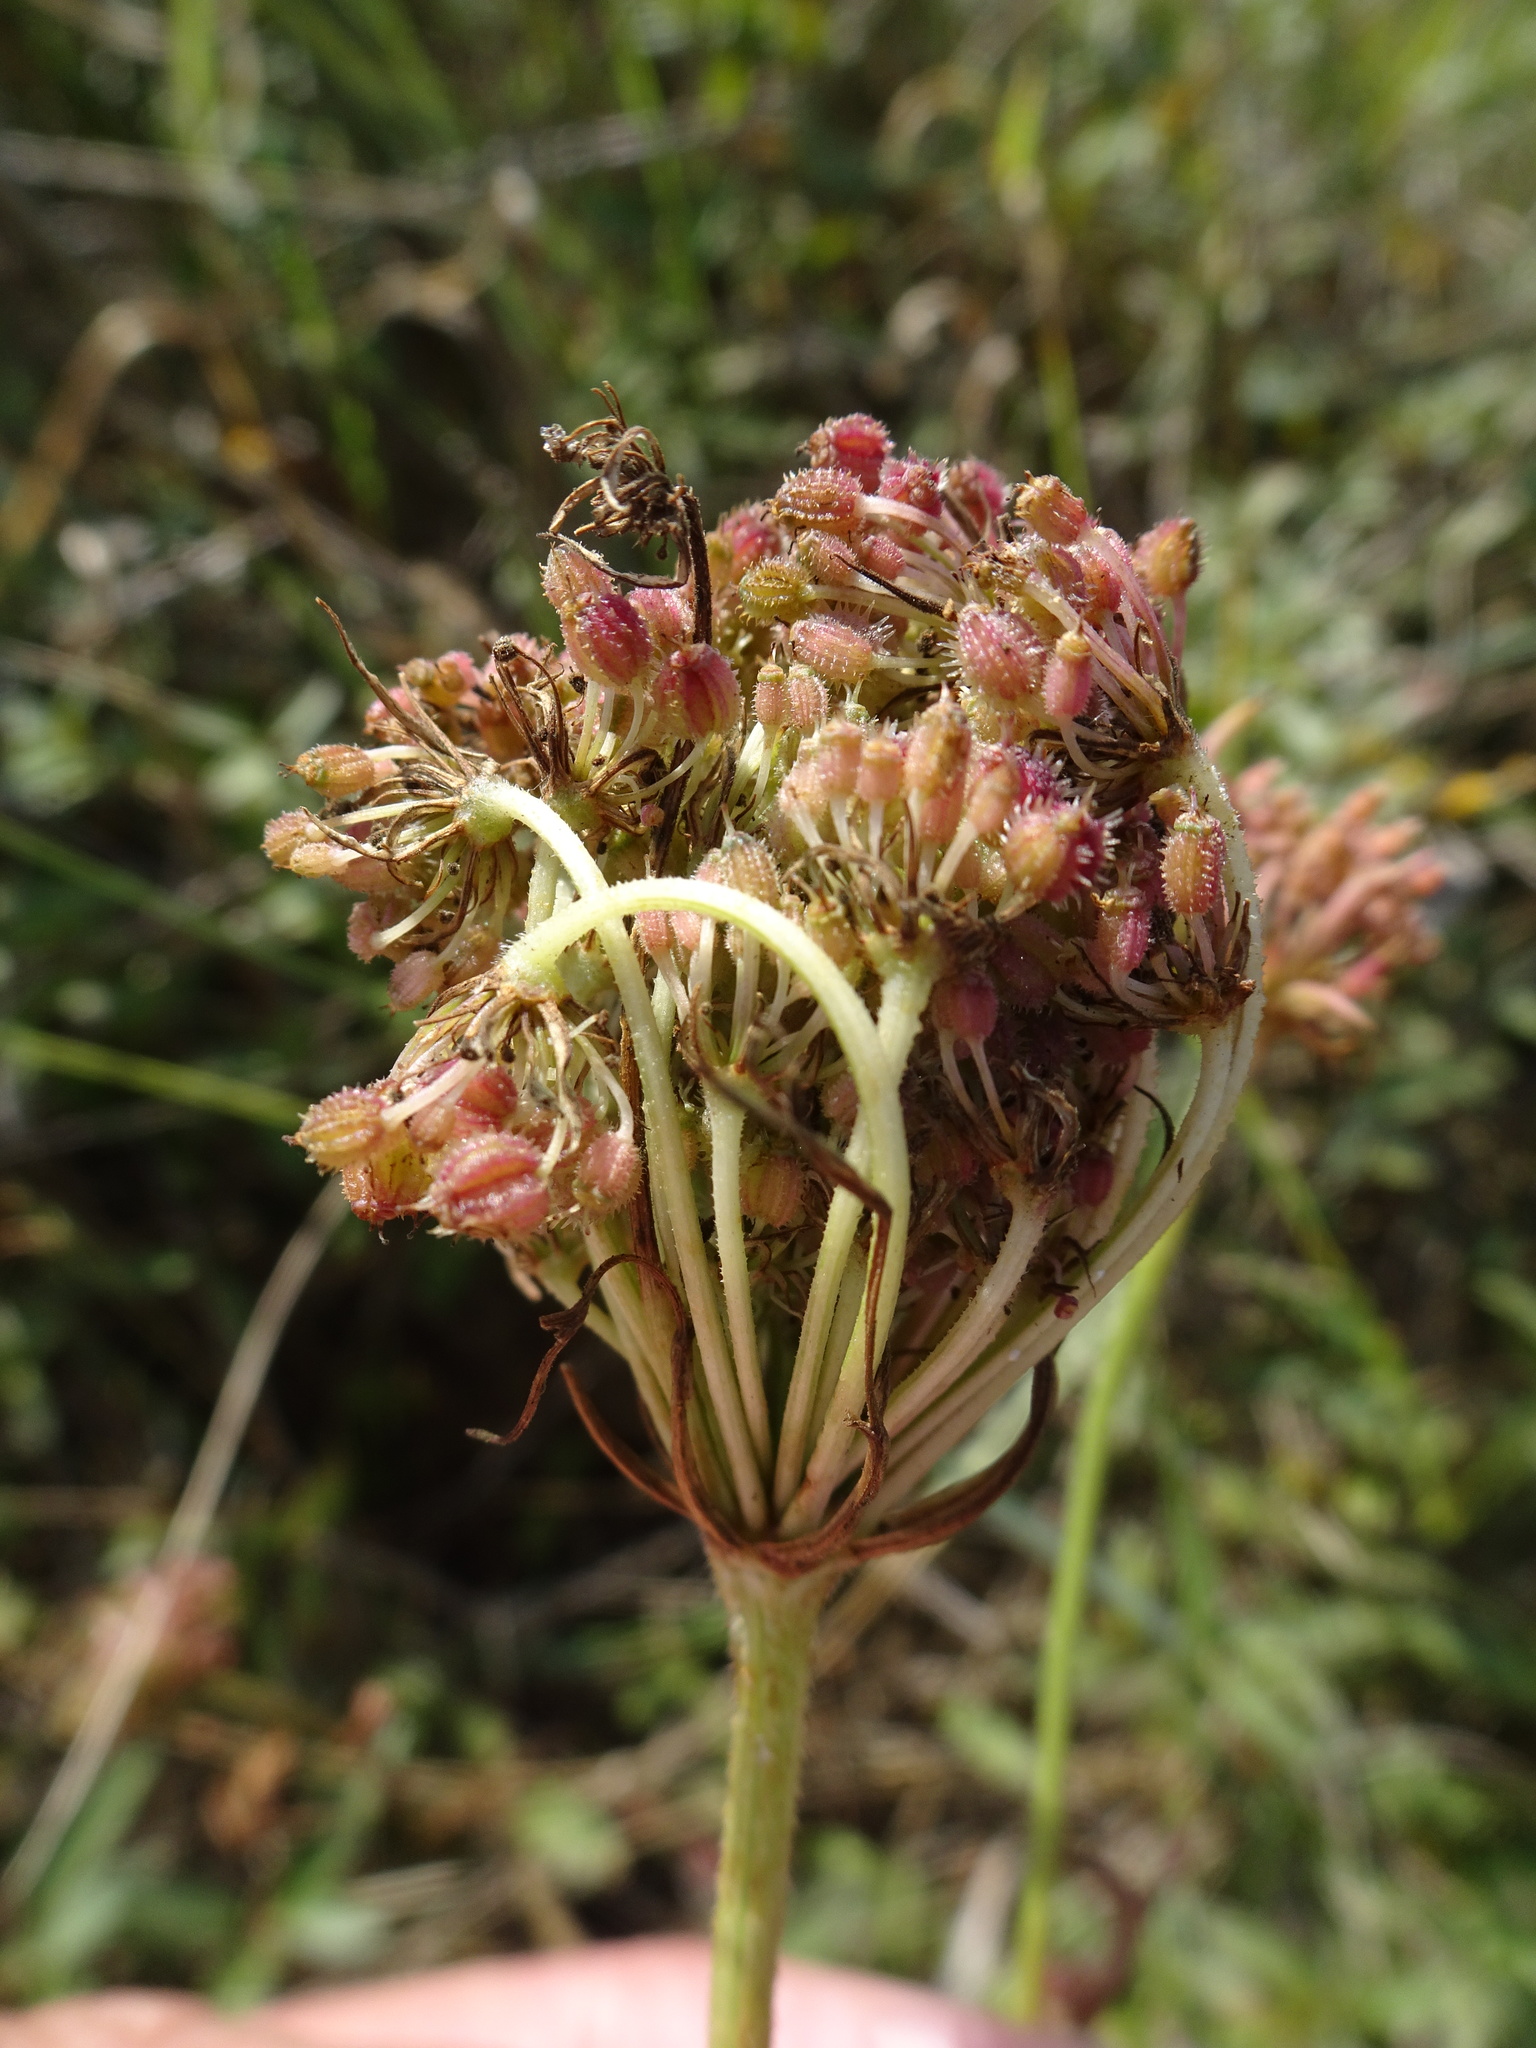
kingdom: Plantae
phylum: Tracheophyta
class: Magnoliopsida
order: Apiales
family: Apiaceae
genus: Daucus
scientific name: Daucus carota
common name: Wild carrot
